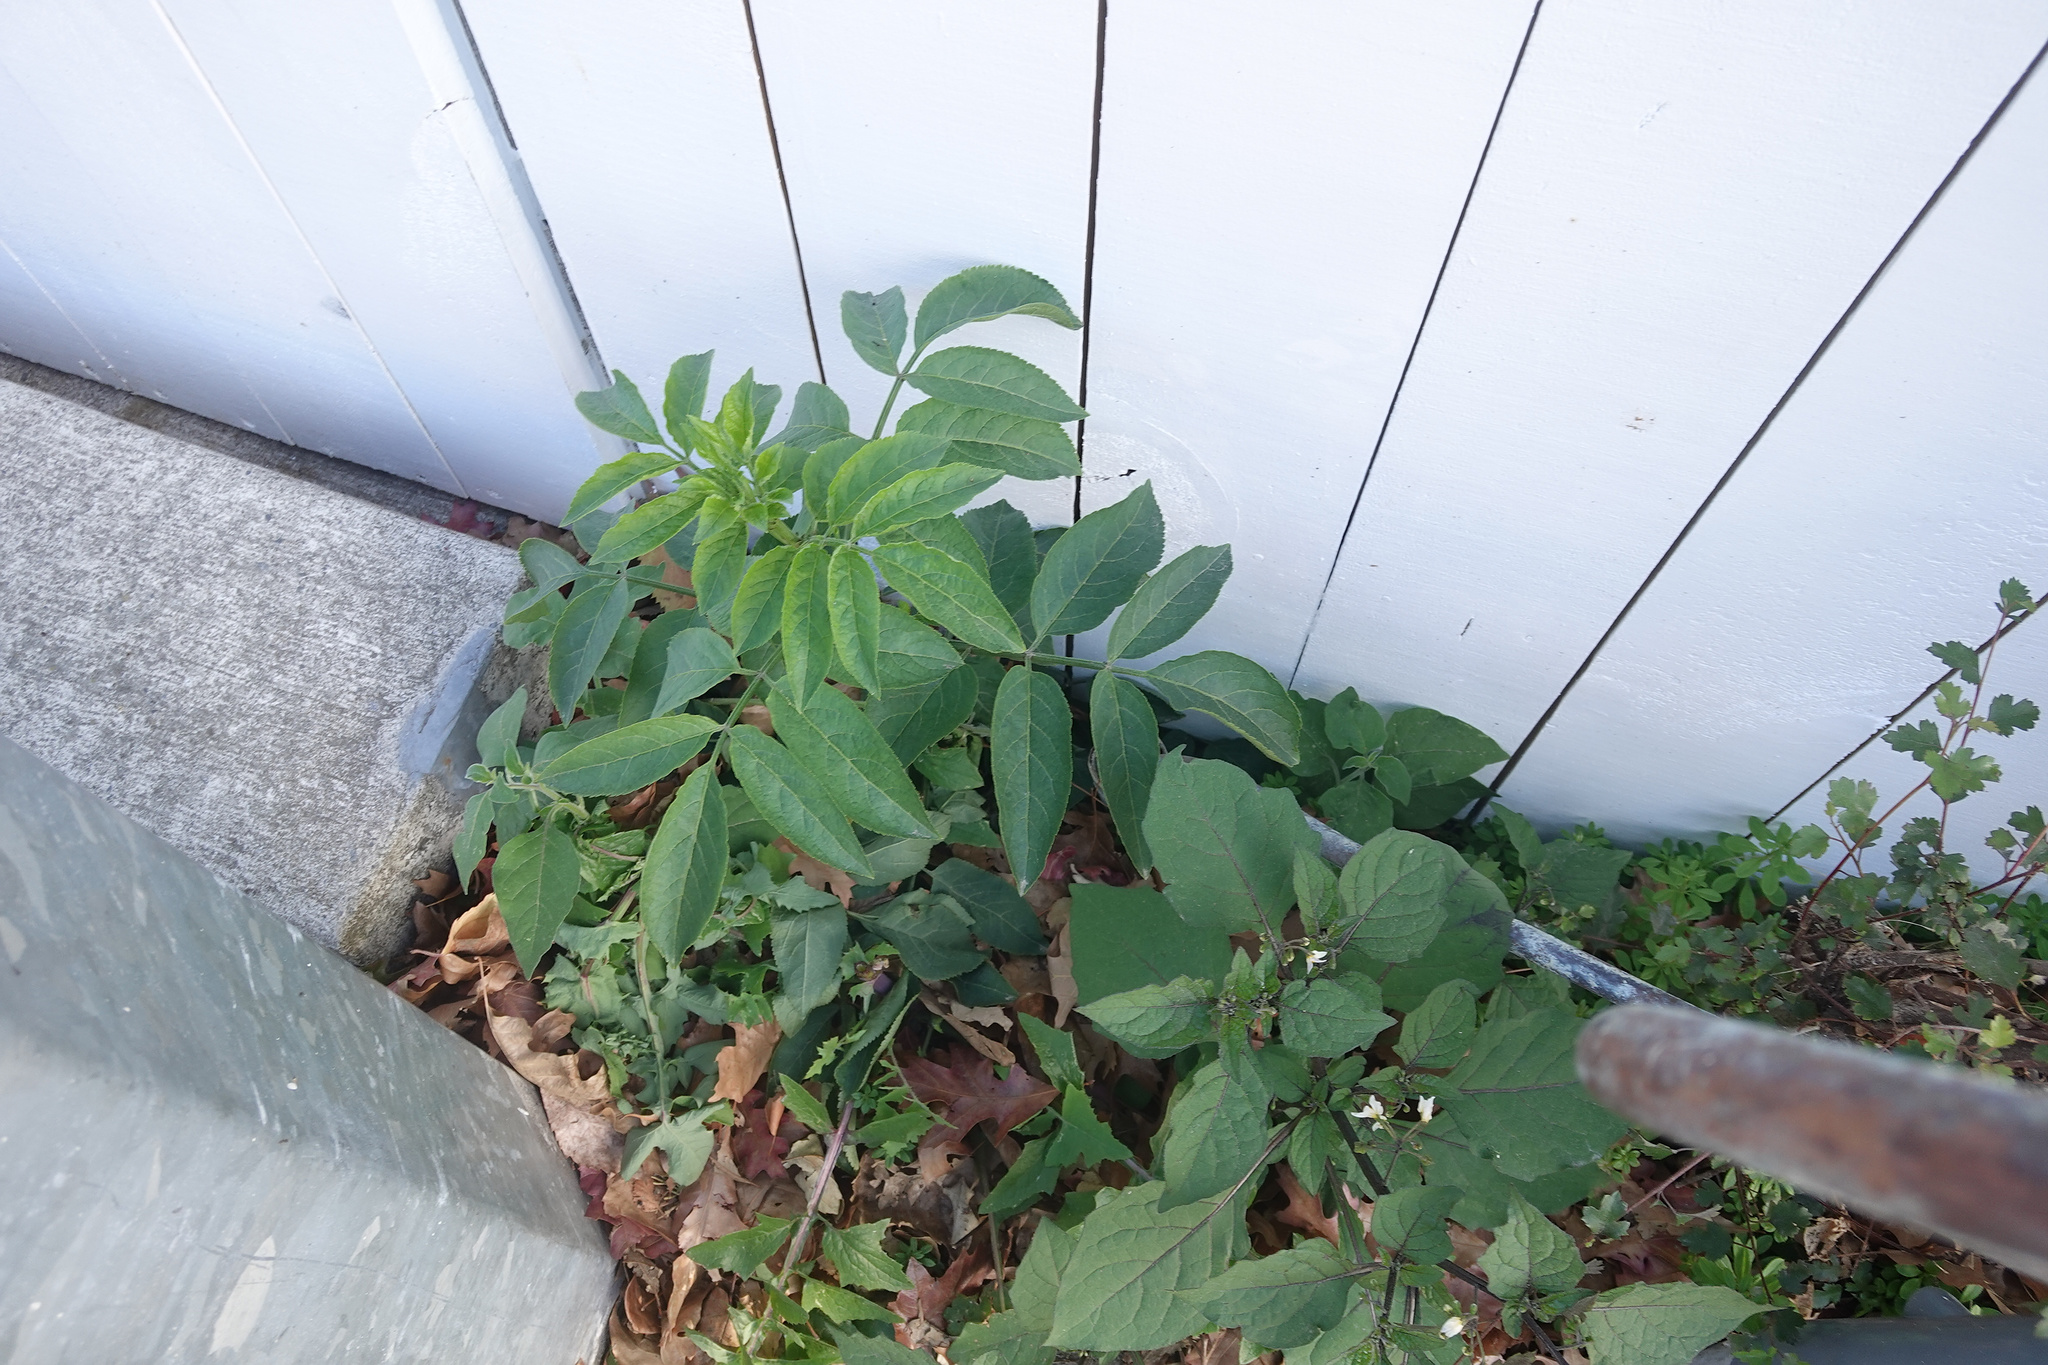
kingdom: Plantae
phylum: Tracheophyta
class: Magnoliopsida
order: Dipsacales
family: Viburnaceae
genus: Sambucus
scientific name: Sambucus nigra
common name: Elder
